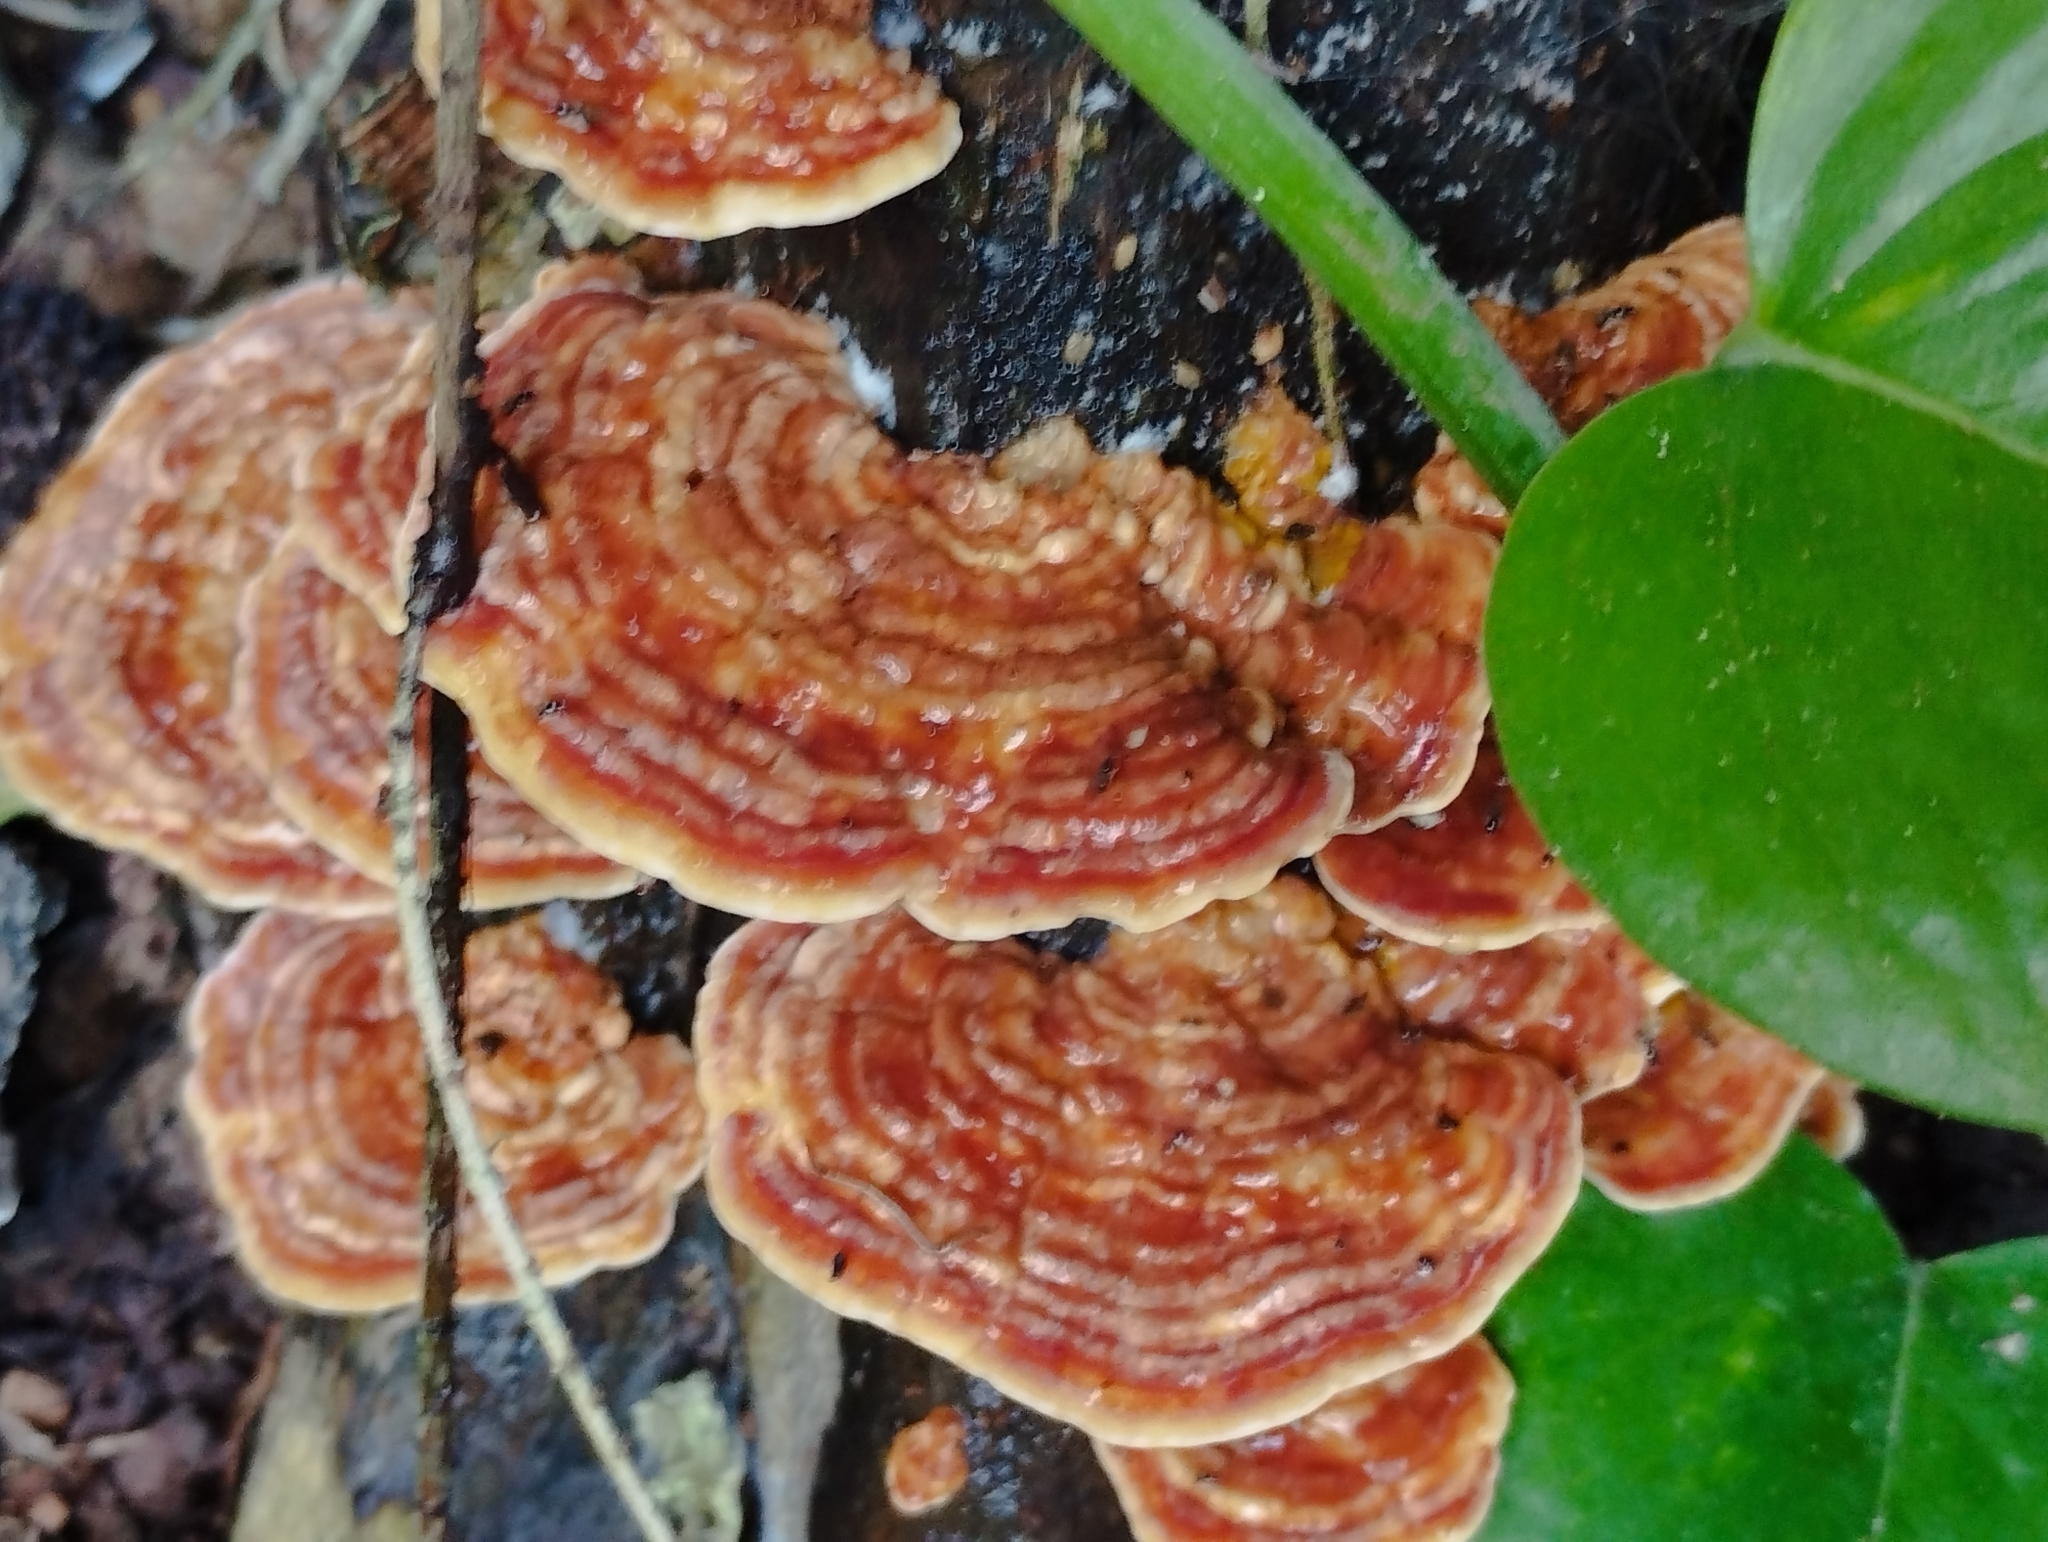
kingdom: Fungi
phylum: Basidiomycota
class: Agaricomycetes
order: Polyporales
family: Polyporaceae
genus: Trametes
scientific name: Trametes cubensis
